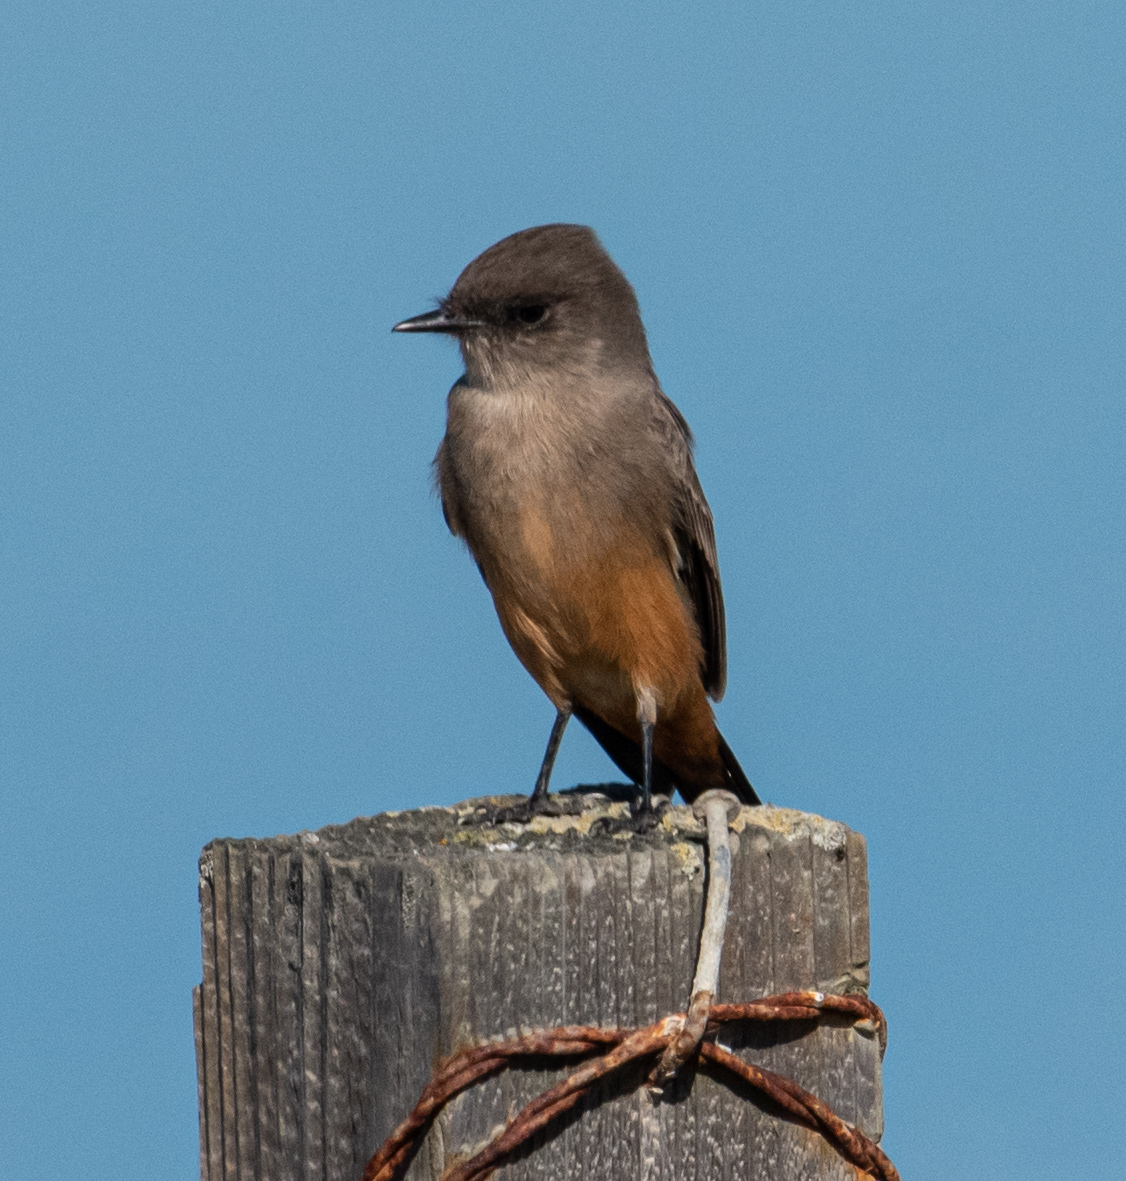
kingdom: Animalia
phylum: Chordata
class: Aves
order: Passeriformes
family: Tyrannidae
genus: Sayornis
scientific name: Sayornis saya
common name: Say's phoebe
